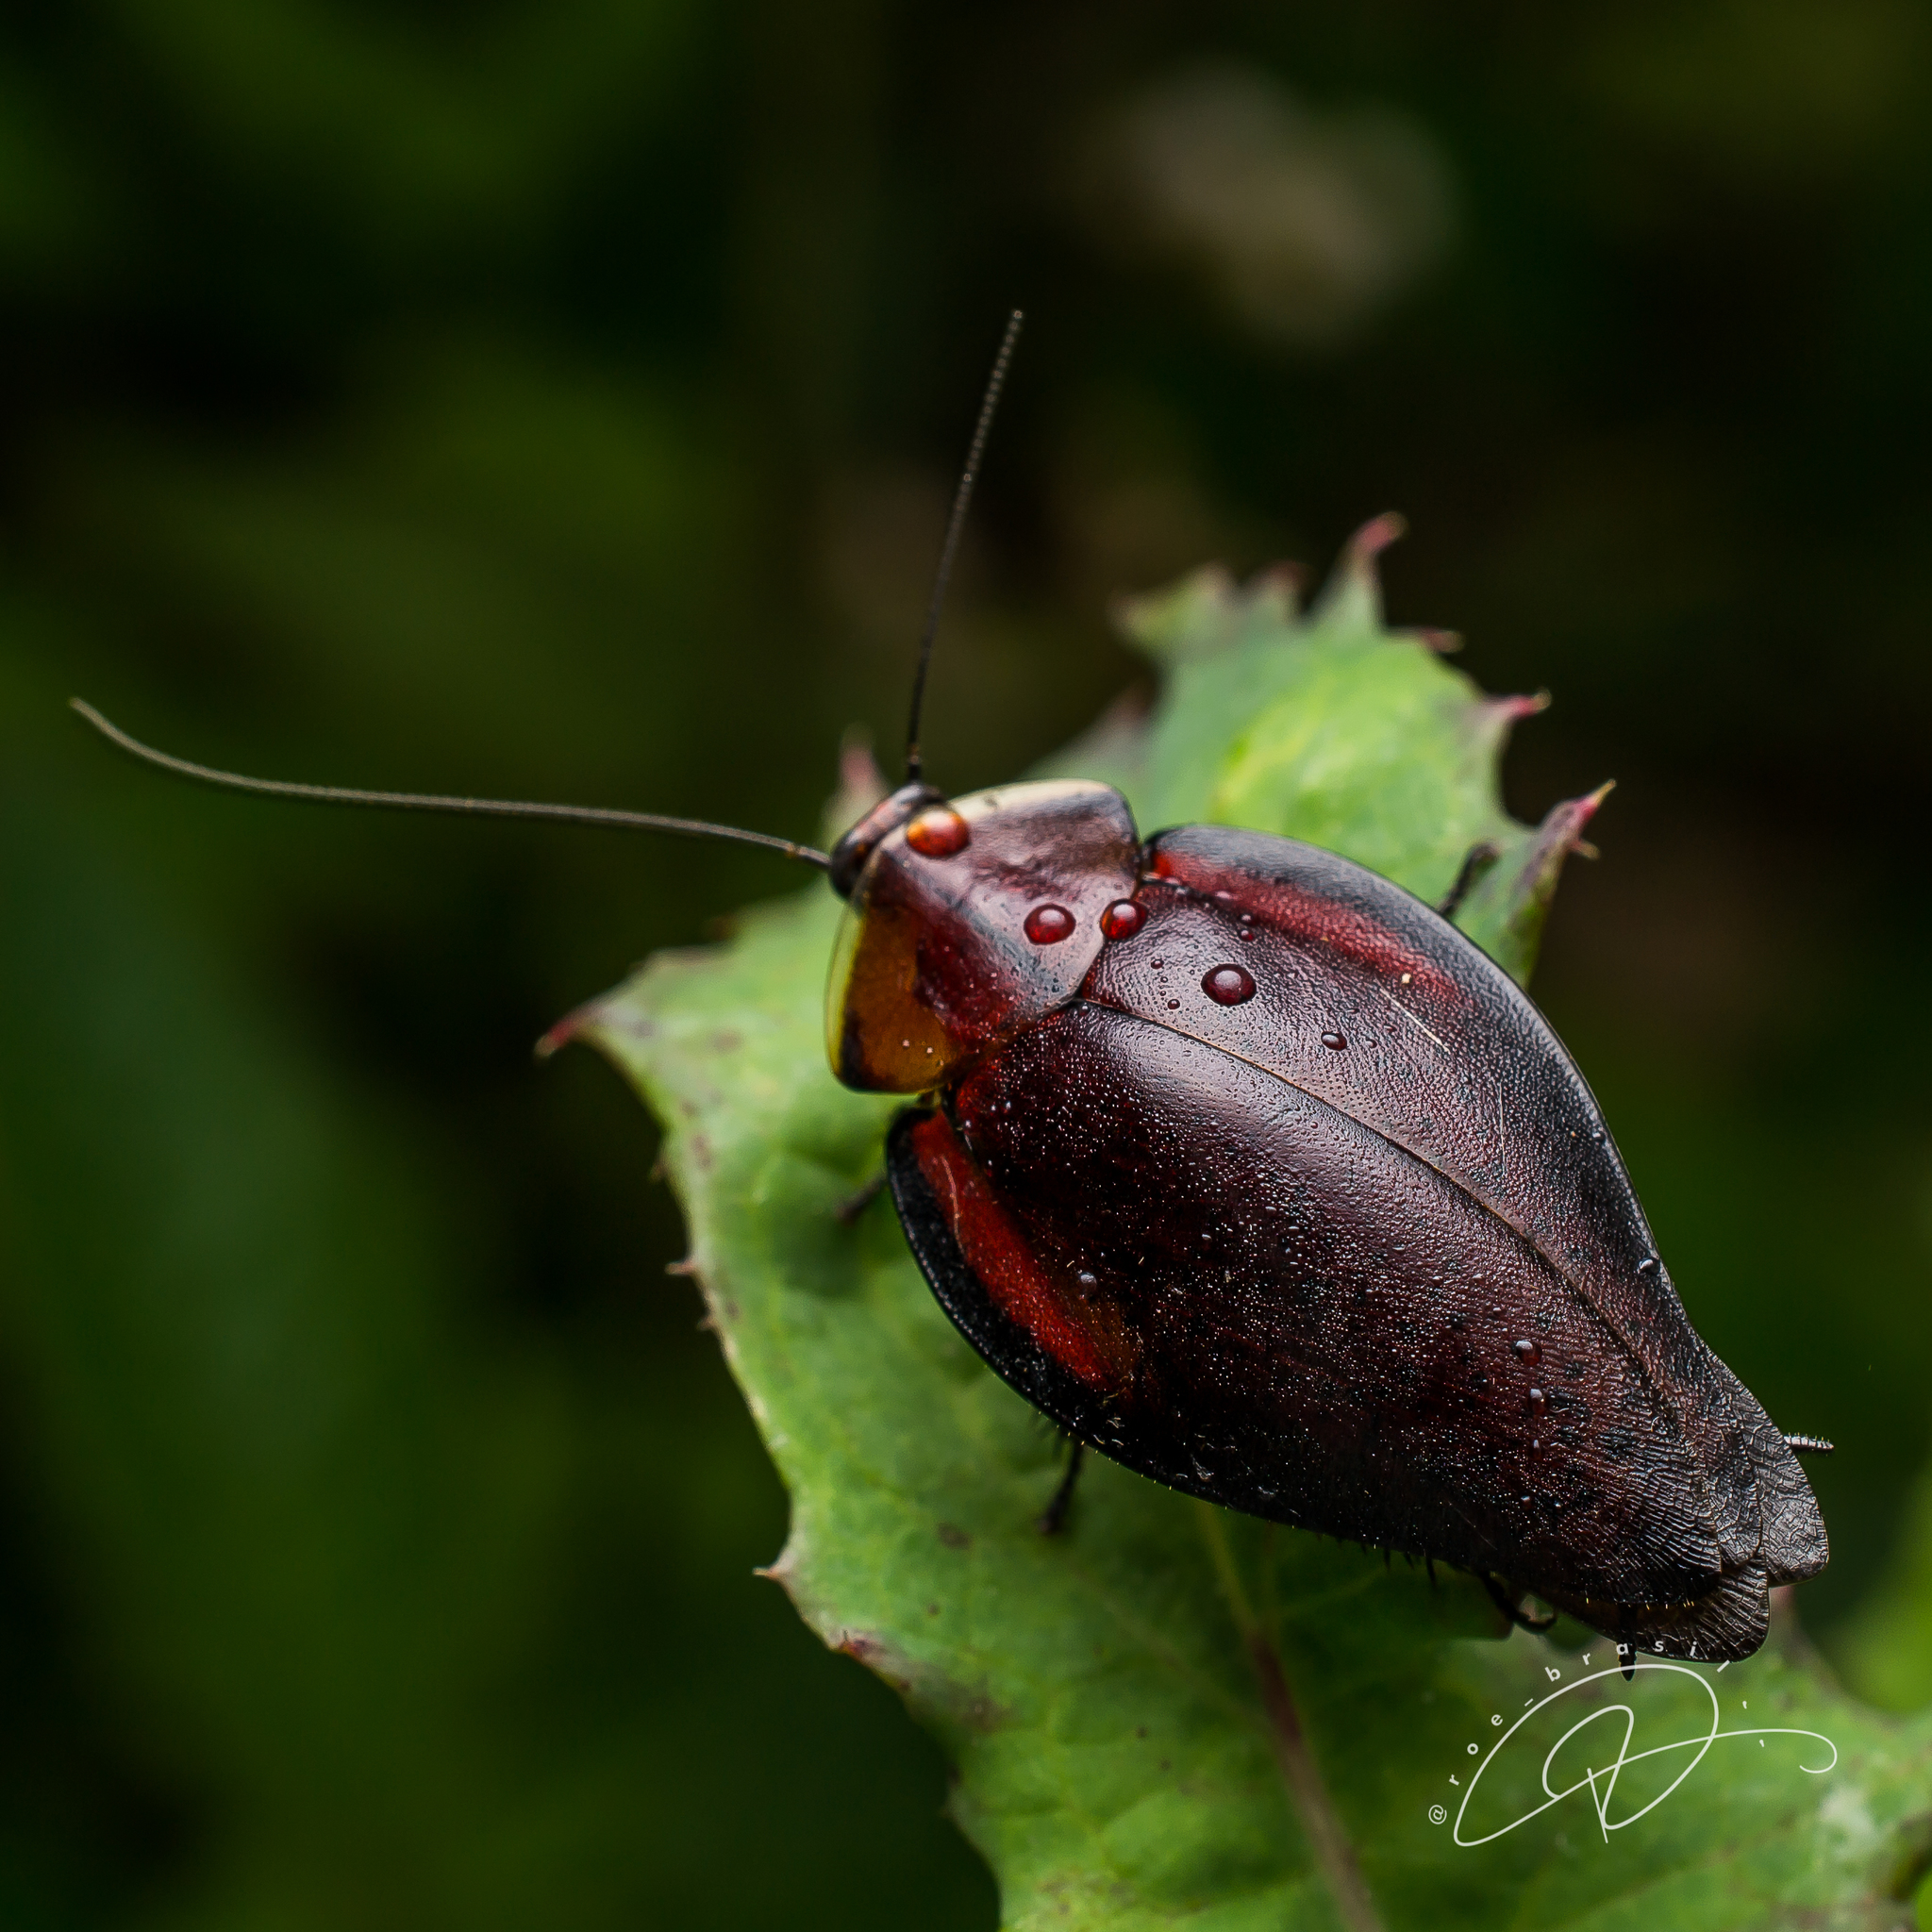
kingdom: Animalia
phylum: Arthropoda
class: Insecta
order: Blattodea
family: Blaberidae
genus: Phoraspis
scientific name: Phoraspis picta
